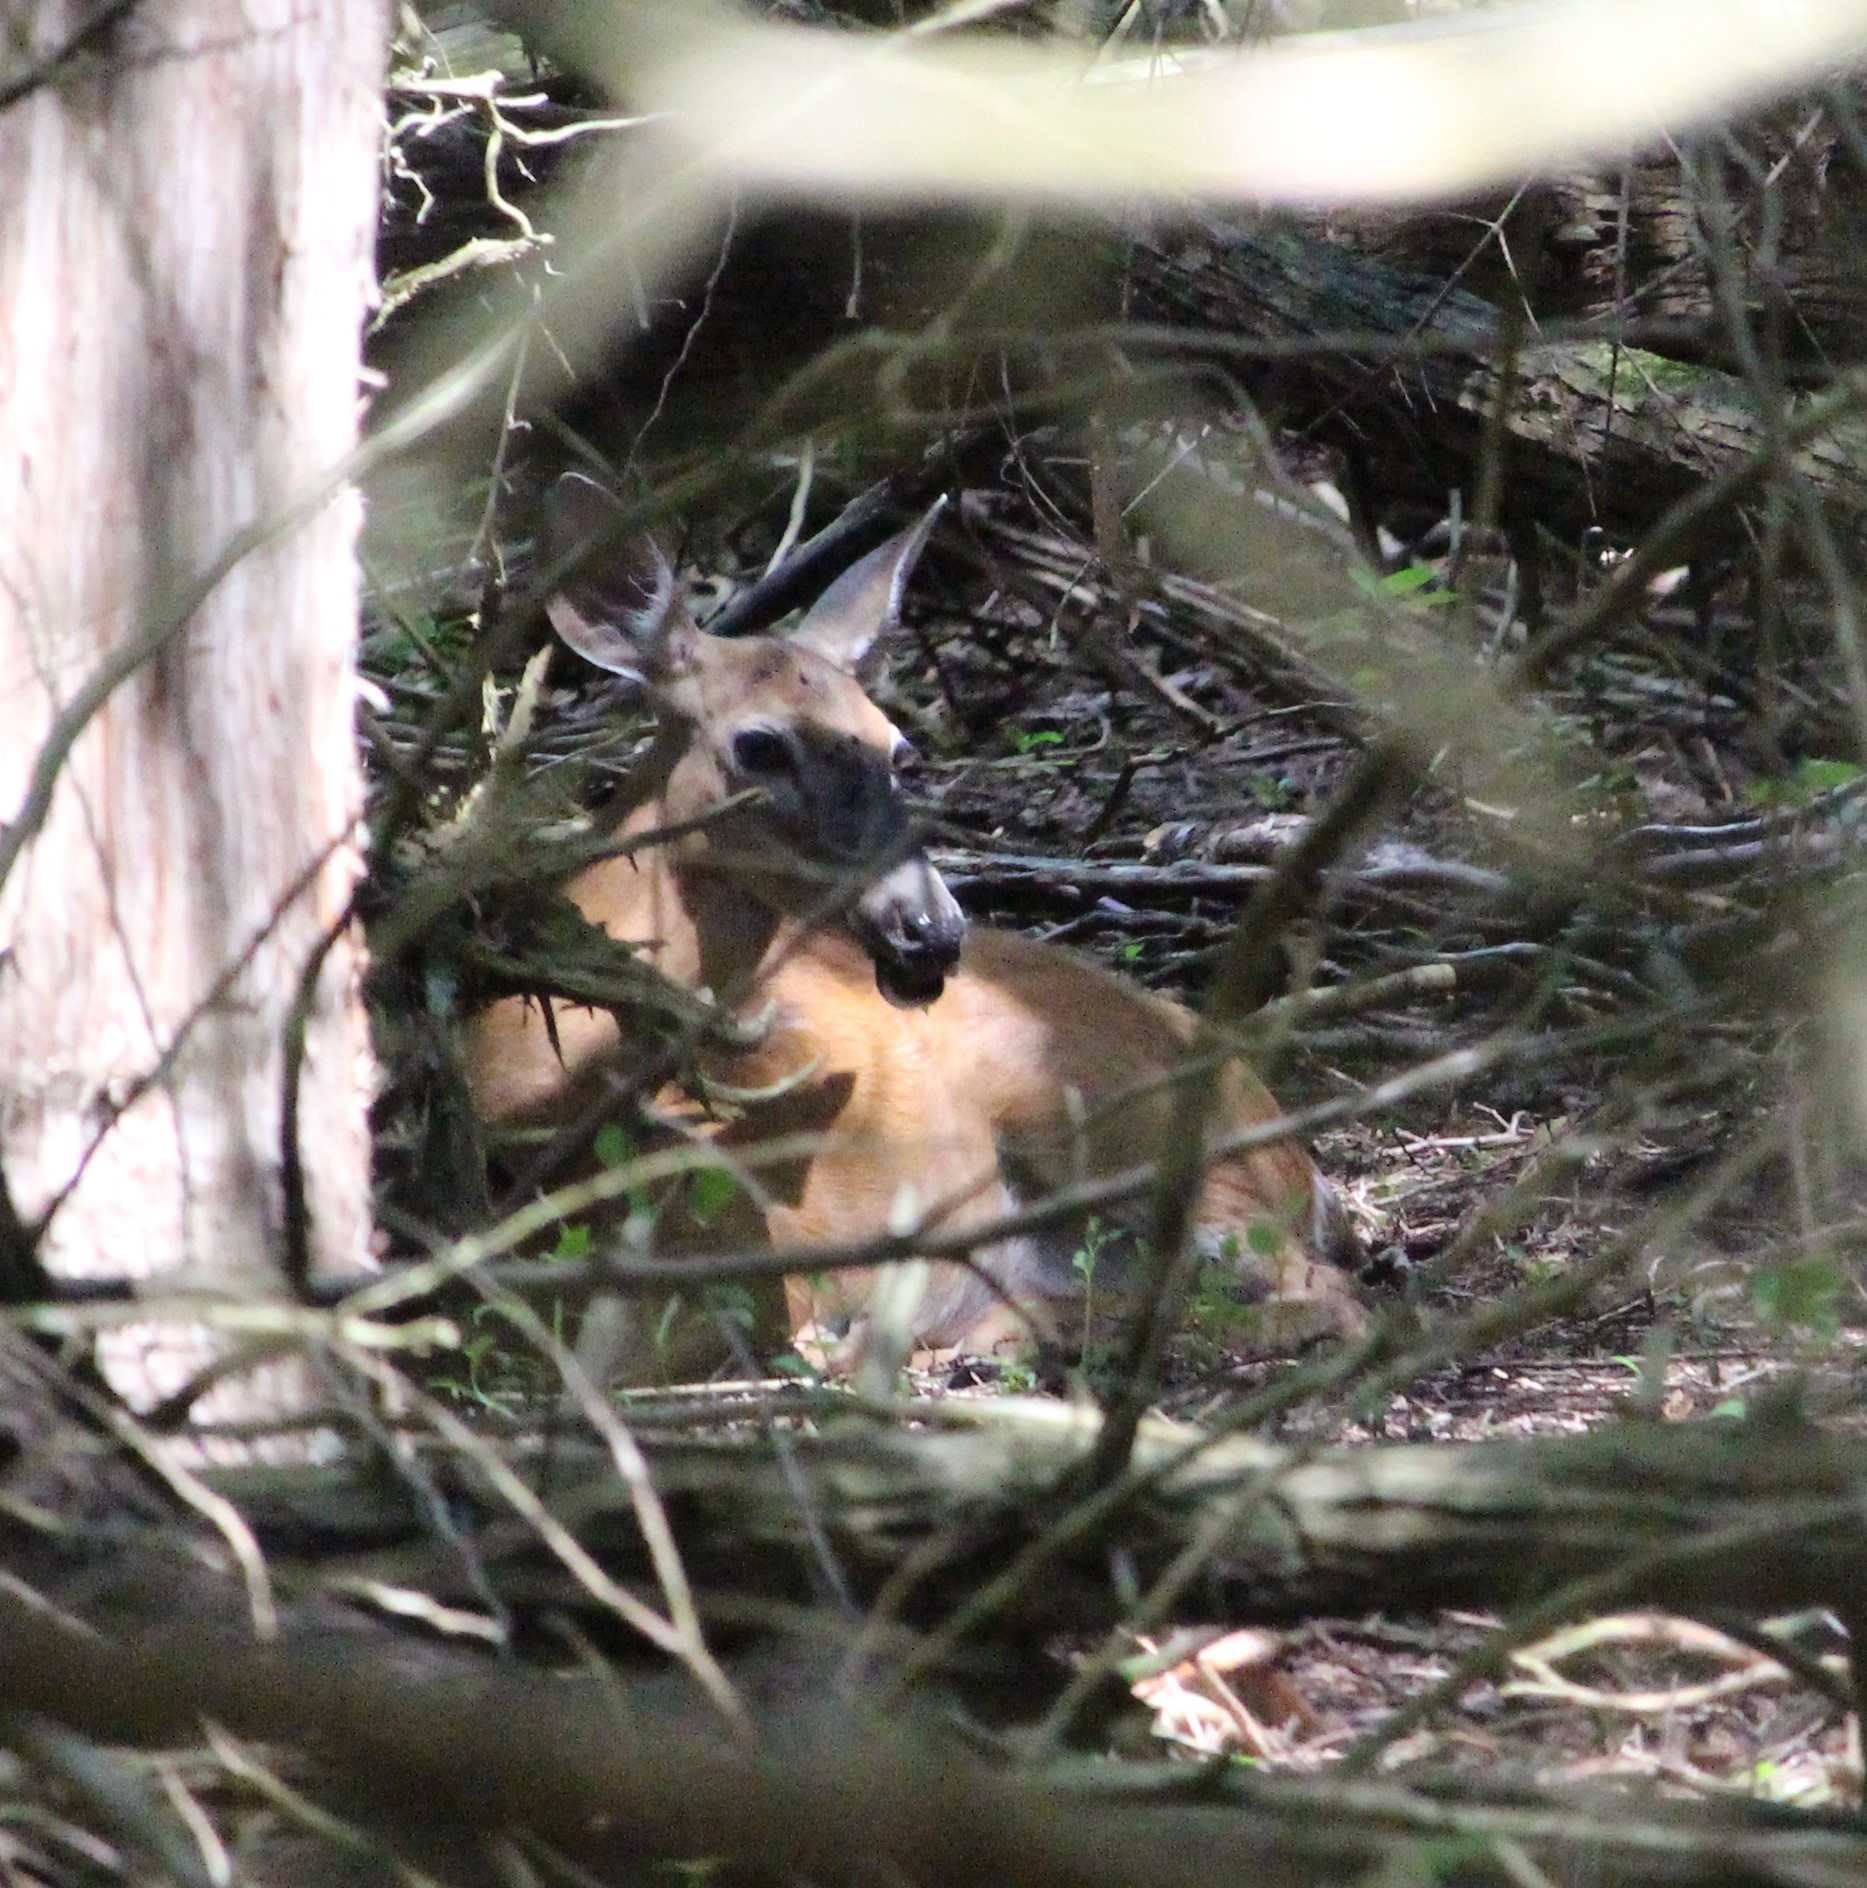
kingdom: Animalia
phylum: Chordata
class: Mammalia
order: Artiodactyla
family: Cervidae
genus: Odocoileus
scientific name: Odocoileus virginianus
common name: White-tailed deer
